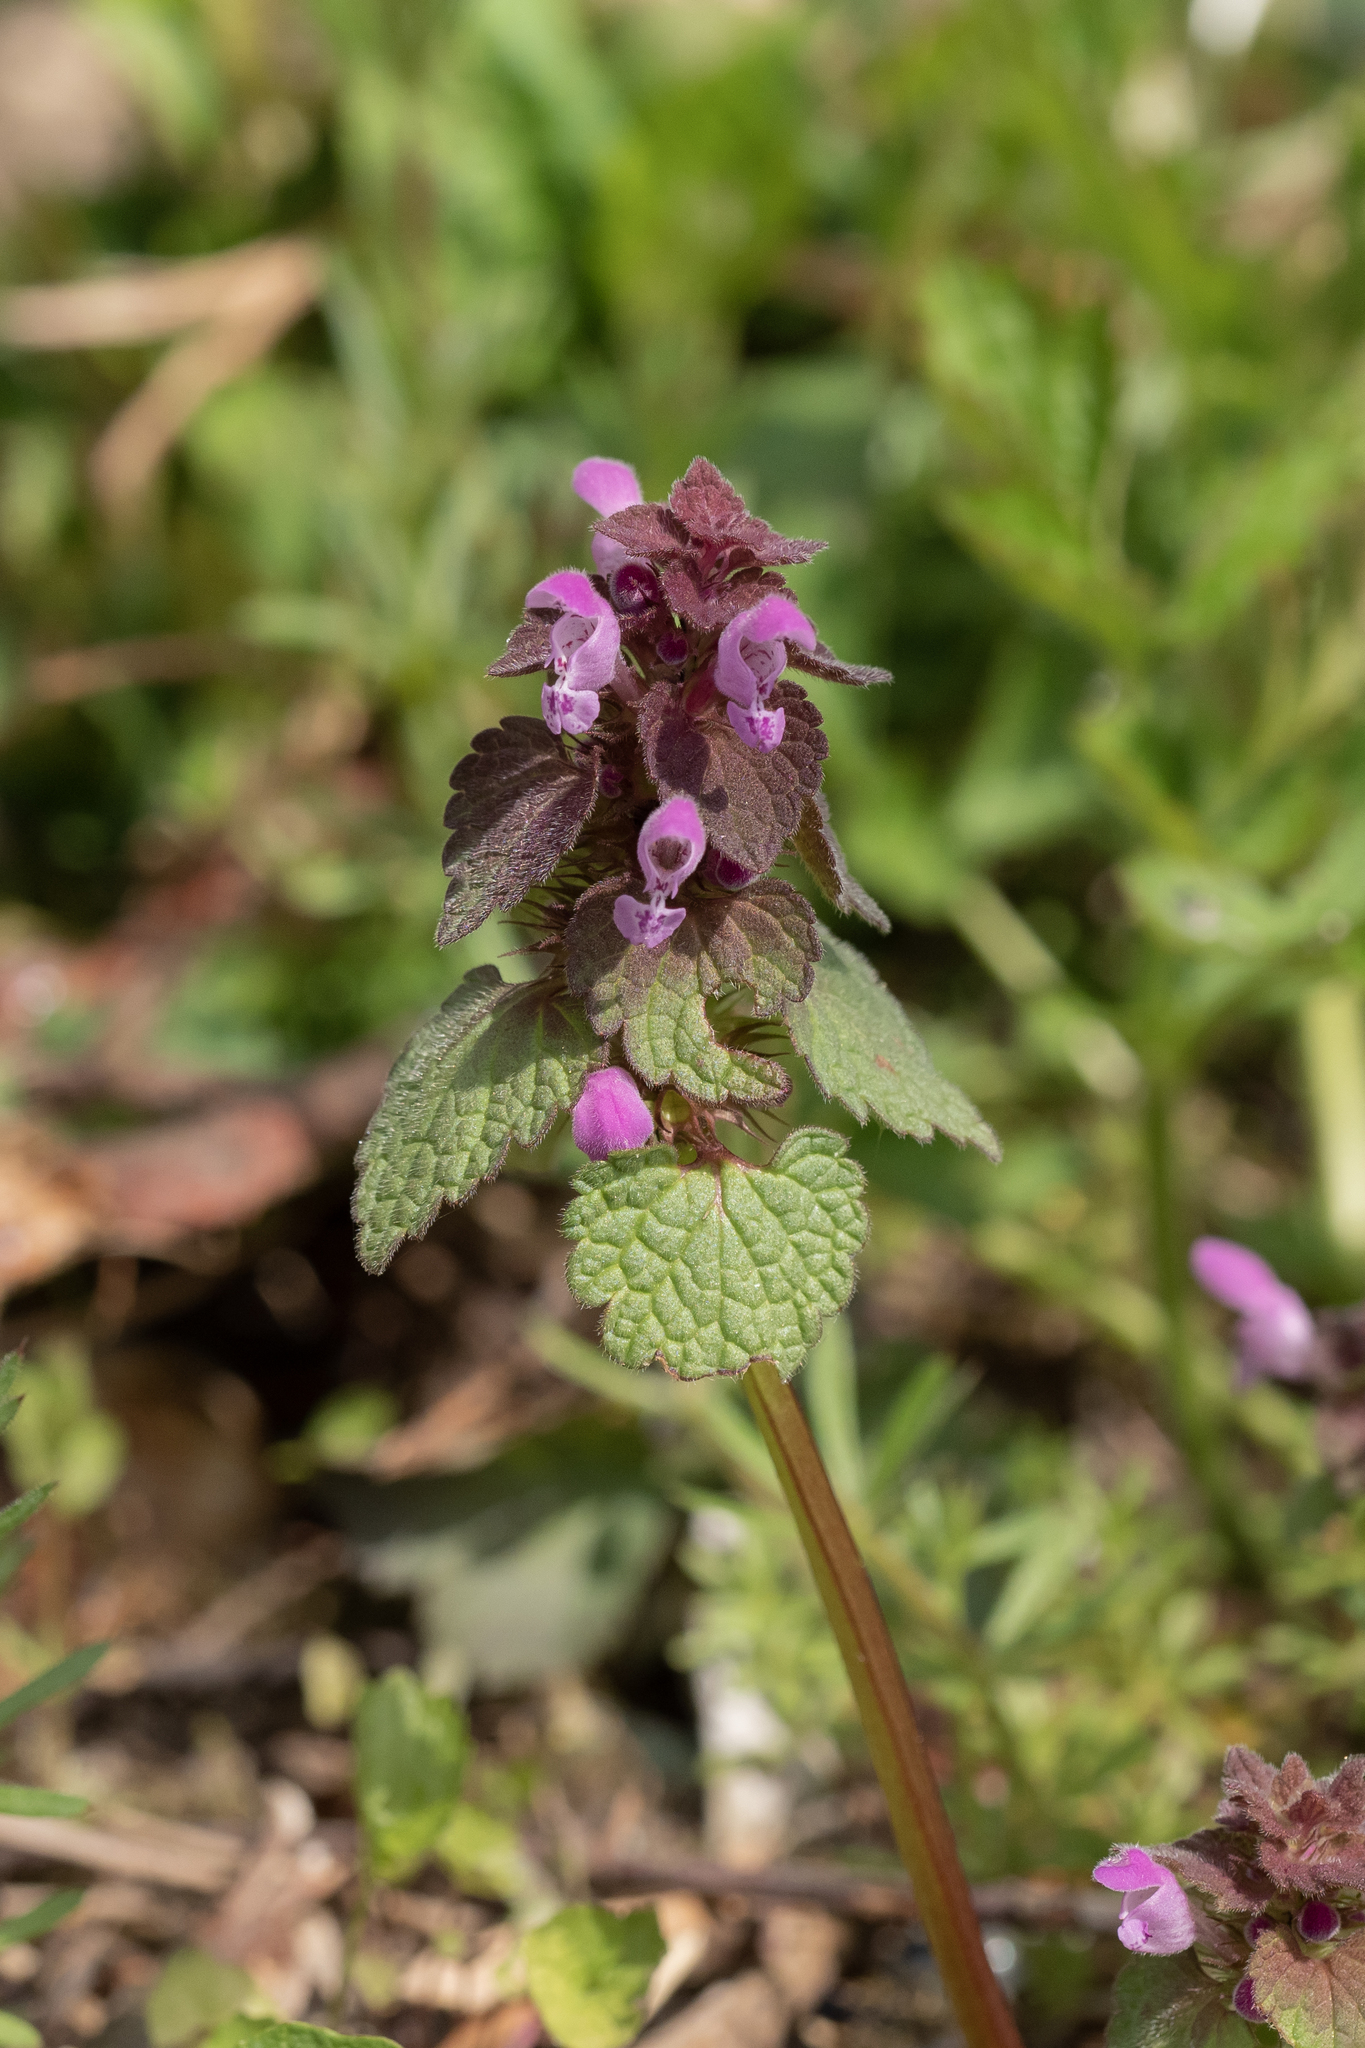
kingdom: Plantae
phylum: Tracheophyta
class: Magnoliopsida
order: Lamiales
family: Lamiaceae
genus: Lamium
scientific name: Lamium purpureum
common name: Red dead-nettle
